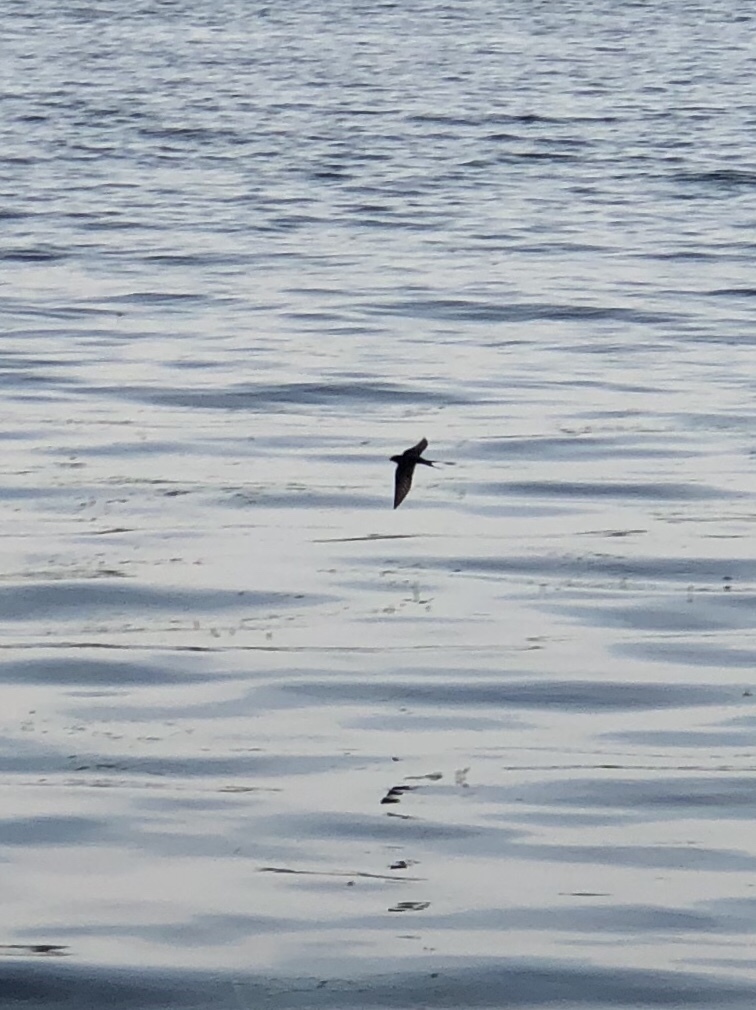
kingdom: Animalia
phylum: Chordata
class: Aves
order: Passeriformes
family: Hirundinidae
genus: Hirundo
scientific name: Hirundo rustica
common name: Barn swallow
